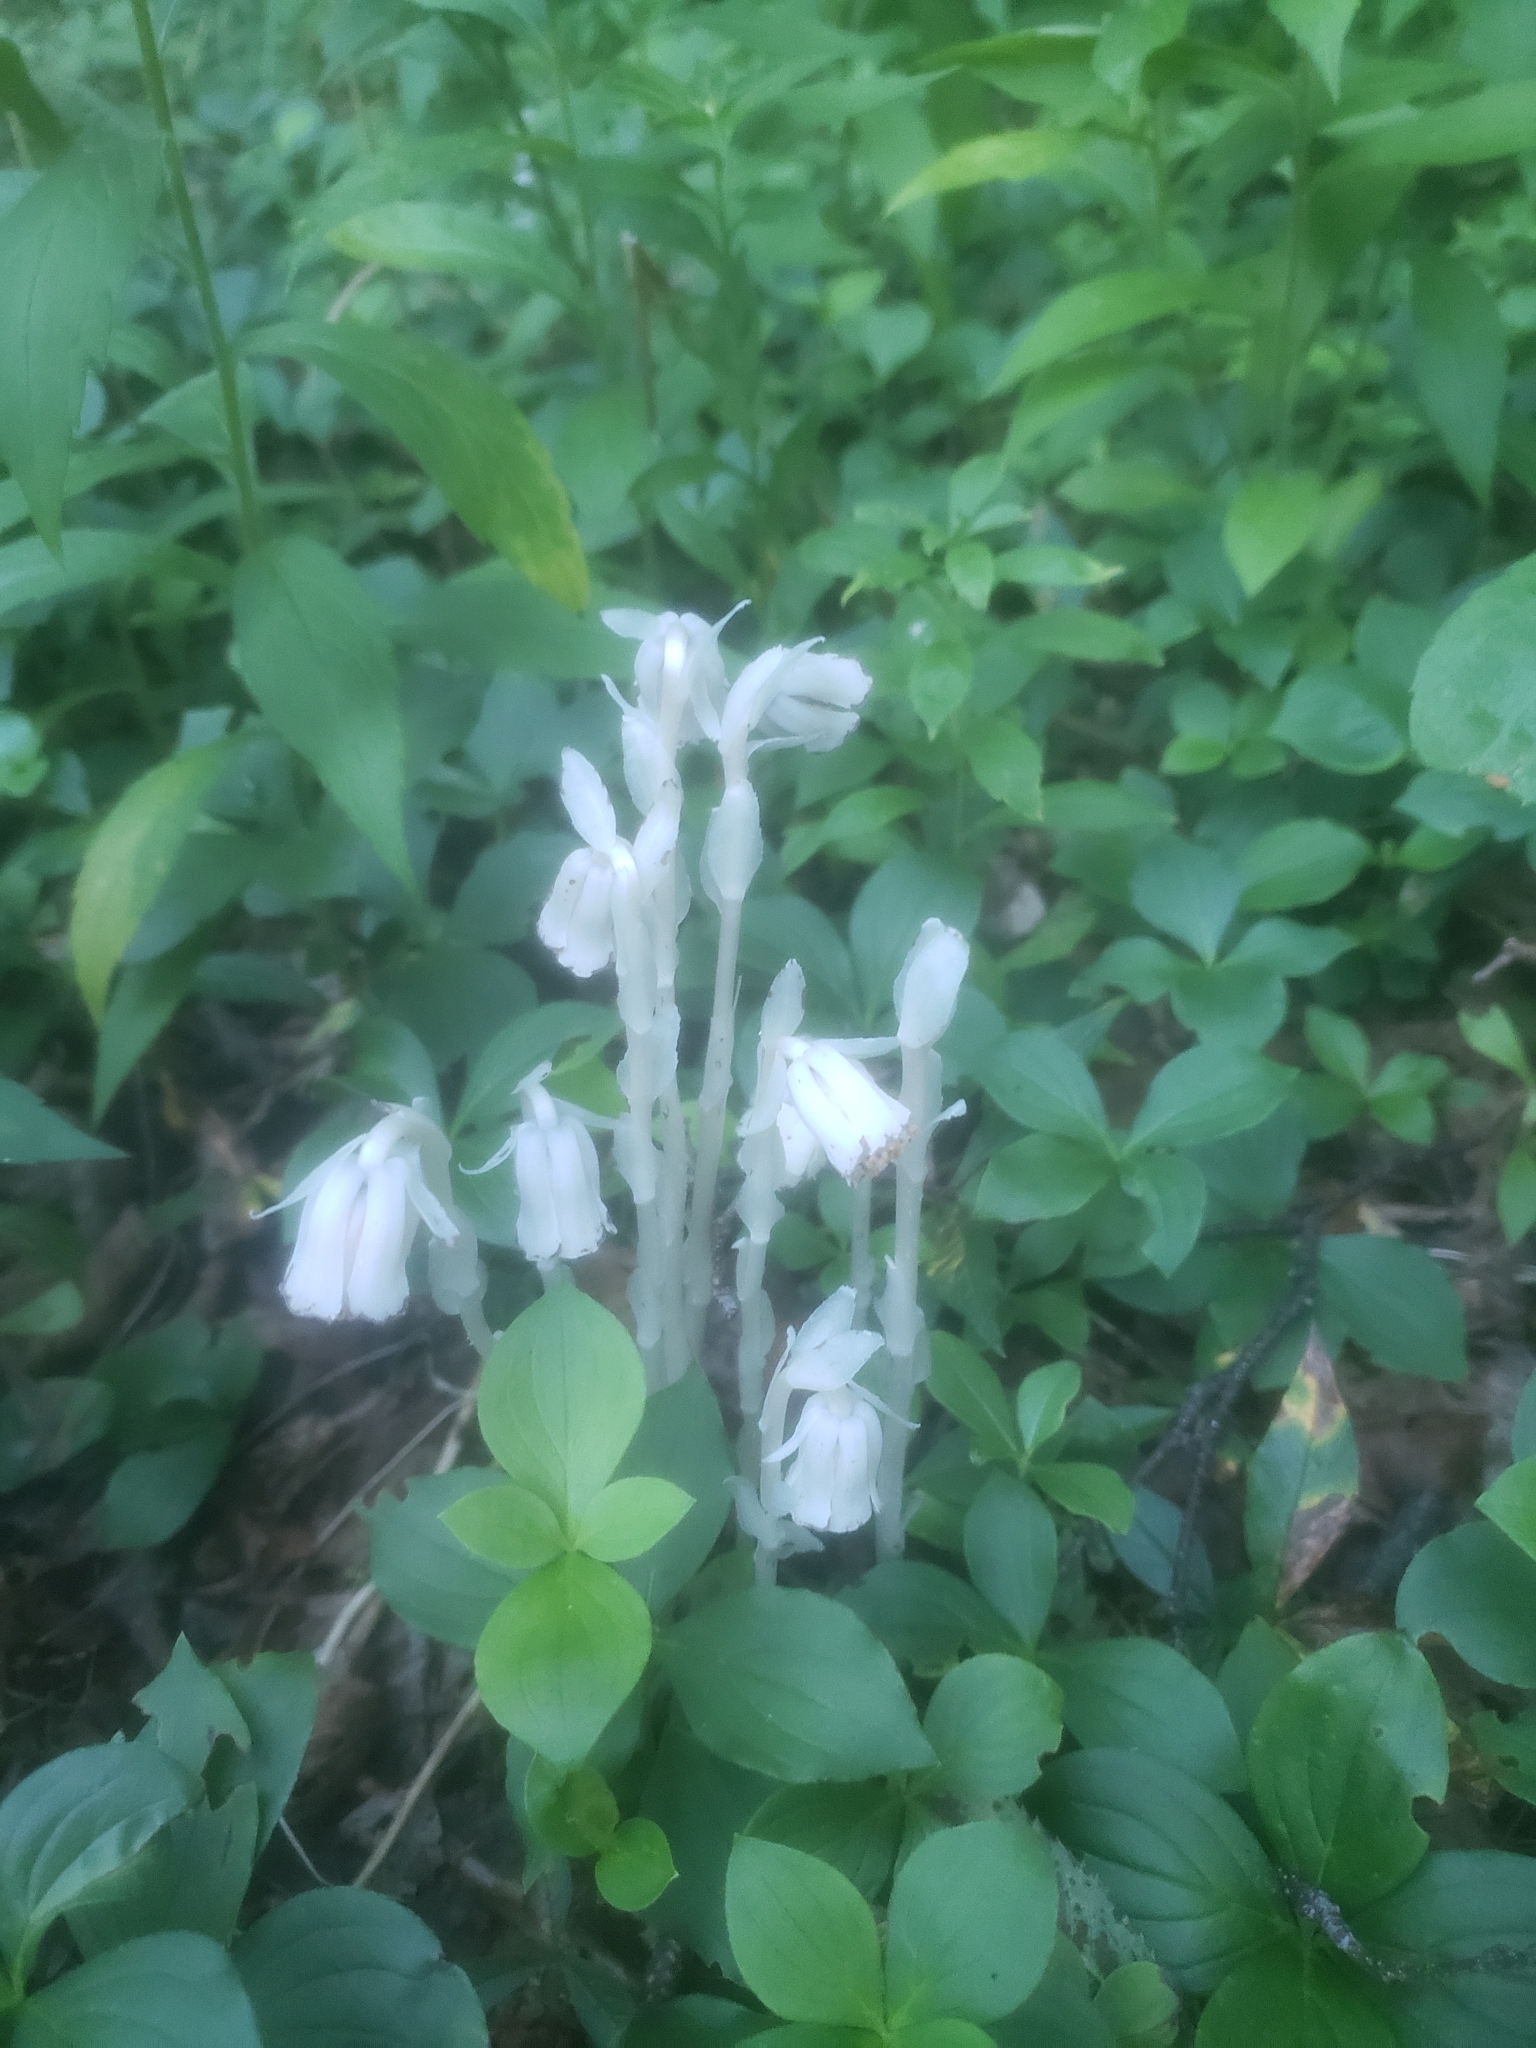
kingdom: Plantae
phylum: Tracheophyta
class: Magnoliopsida
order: Ericales
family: Ericaceae
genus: Monotropa
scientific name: Monotropa uniflora
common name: Convulsion root
